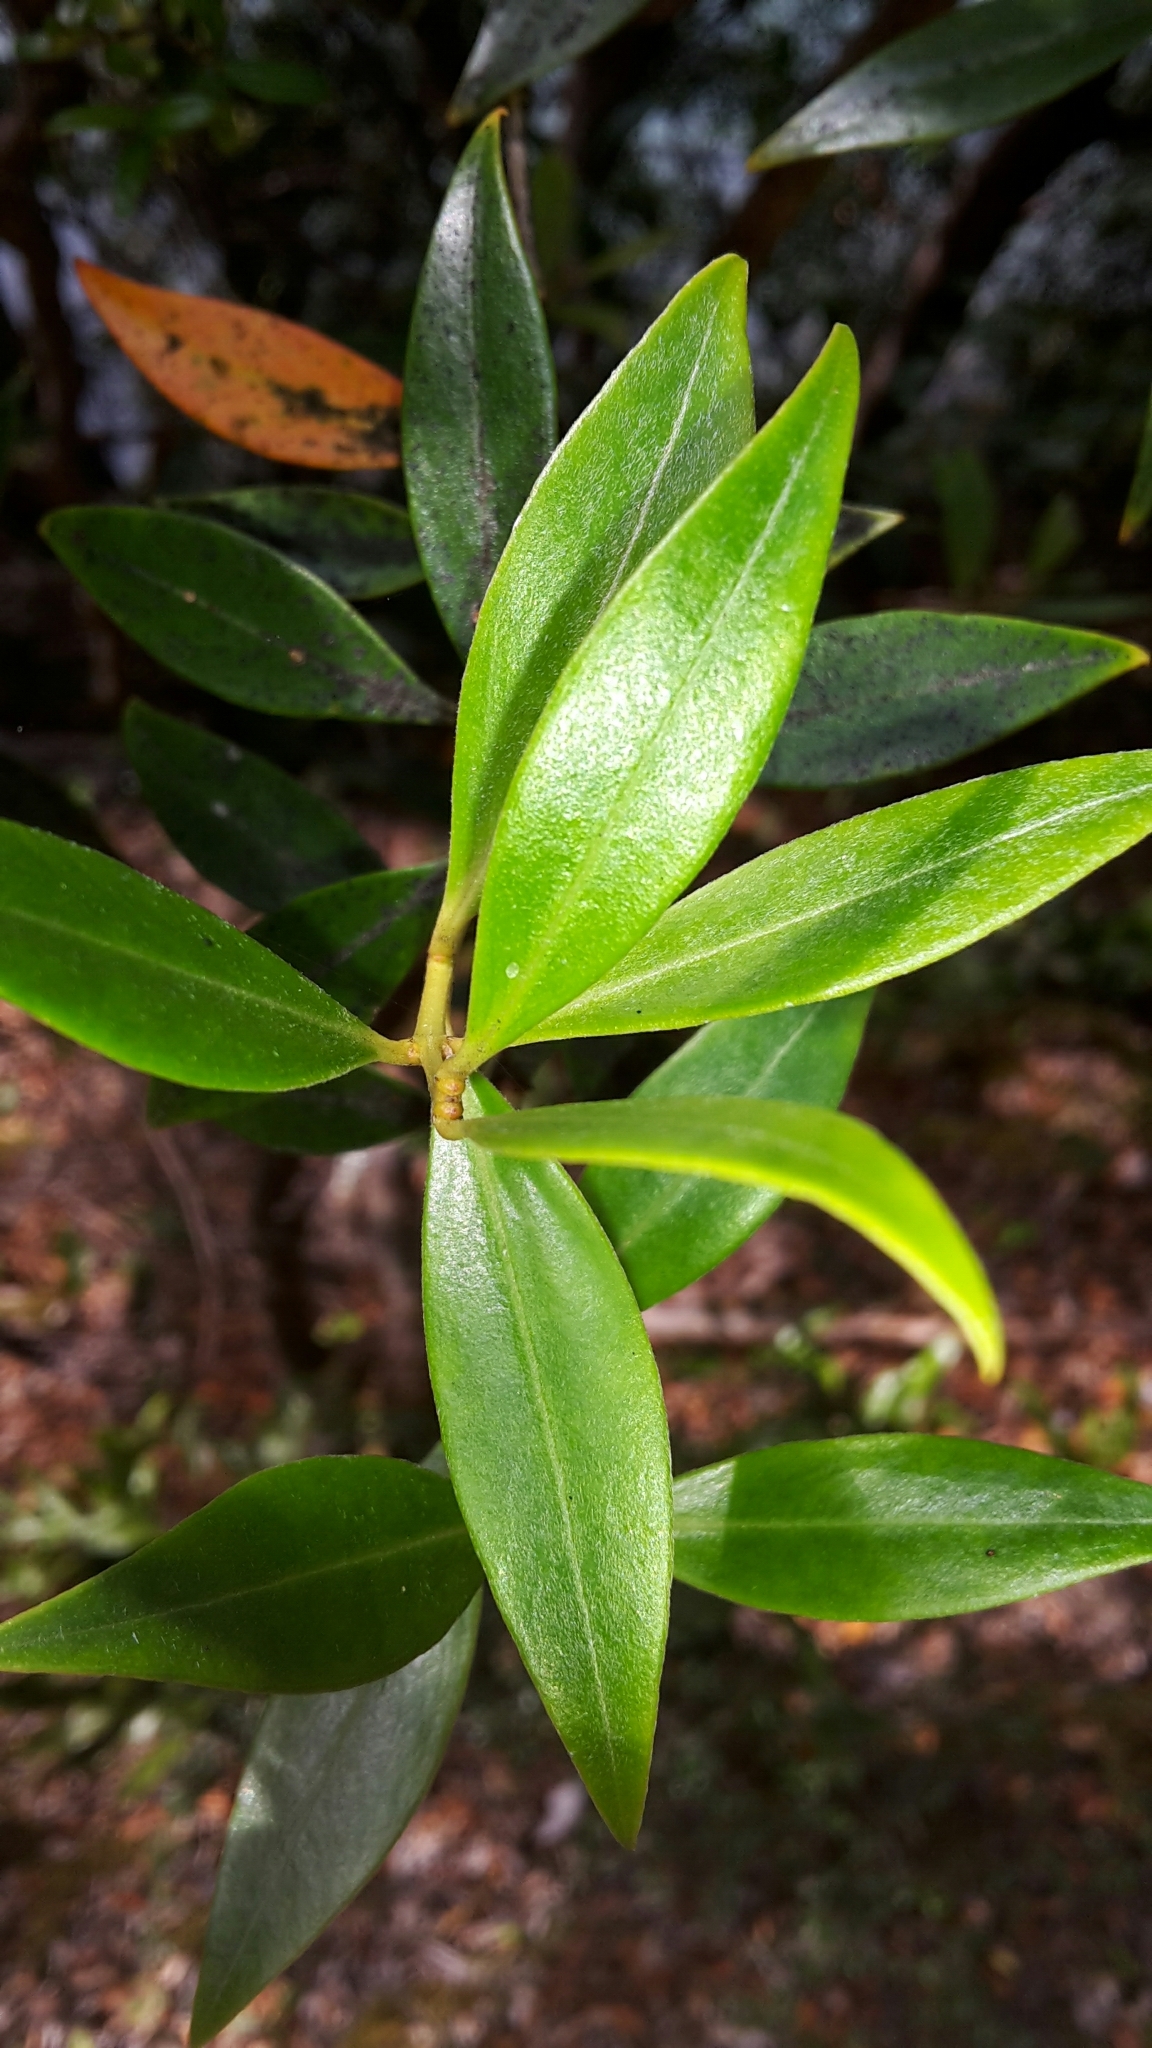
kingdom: Plantae
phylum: Tracheophyta
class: Magnoliopsida
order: Myrtales
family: Myrtaceae
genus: Metrosideros
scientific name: Metrosideros umbellata
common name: Southern rata
